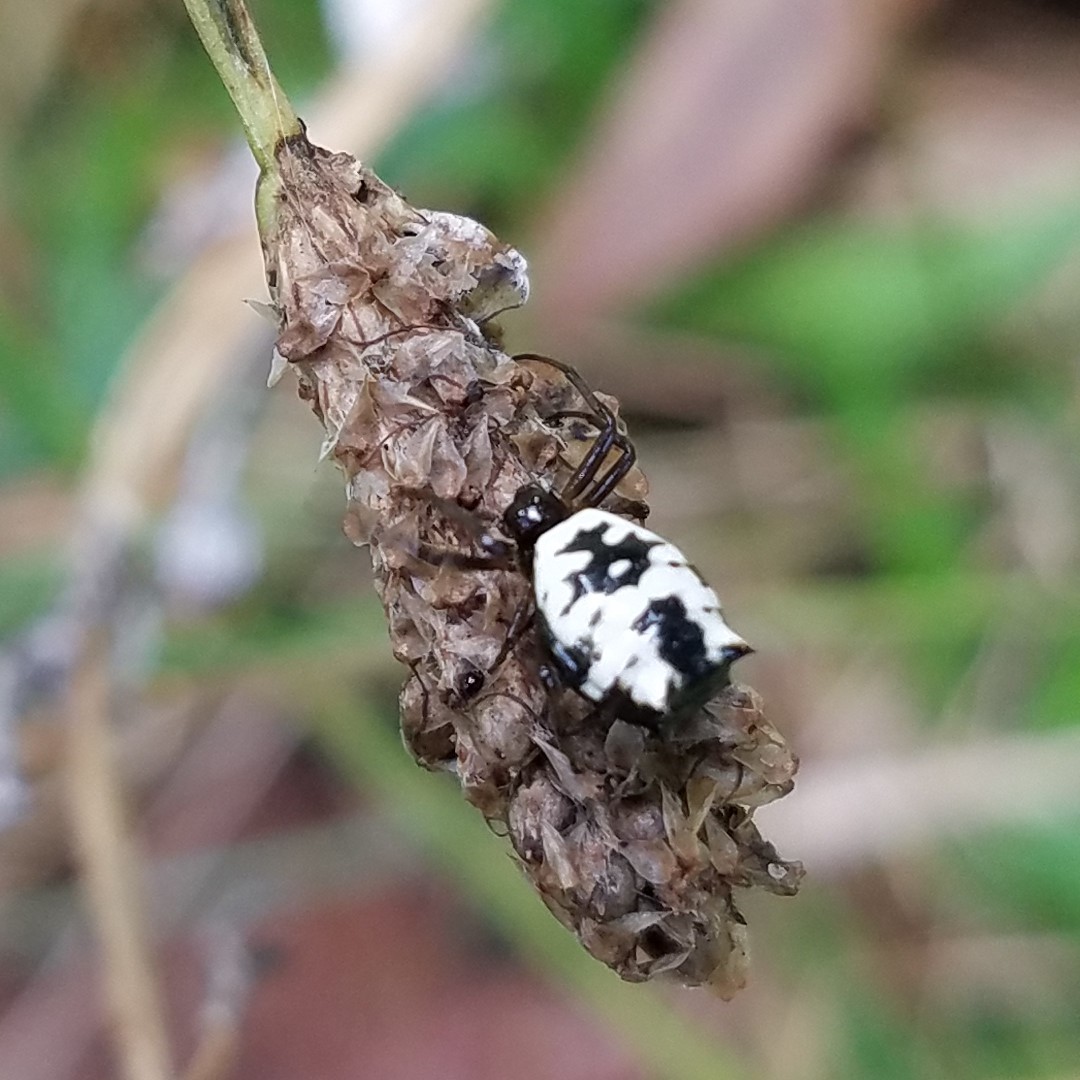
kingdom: Animalia
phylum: Arthropoda
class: Arachnida
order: Araneae
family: Araneidae
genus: Micrathena
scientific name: Micrathena mitrata
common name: Orb weavers
